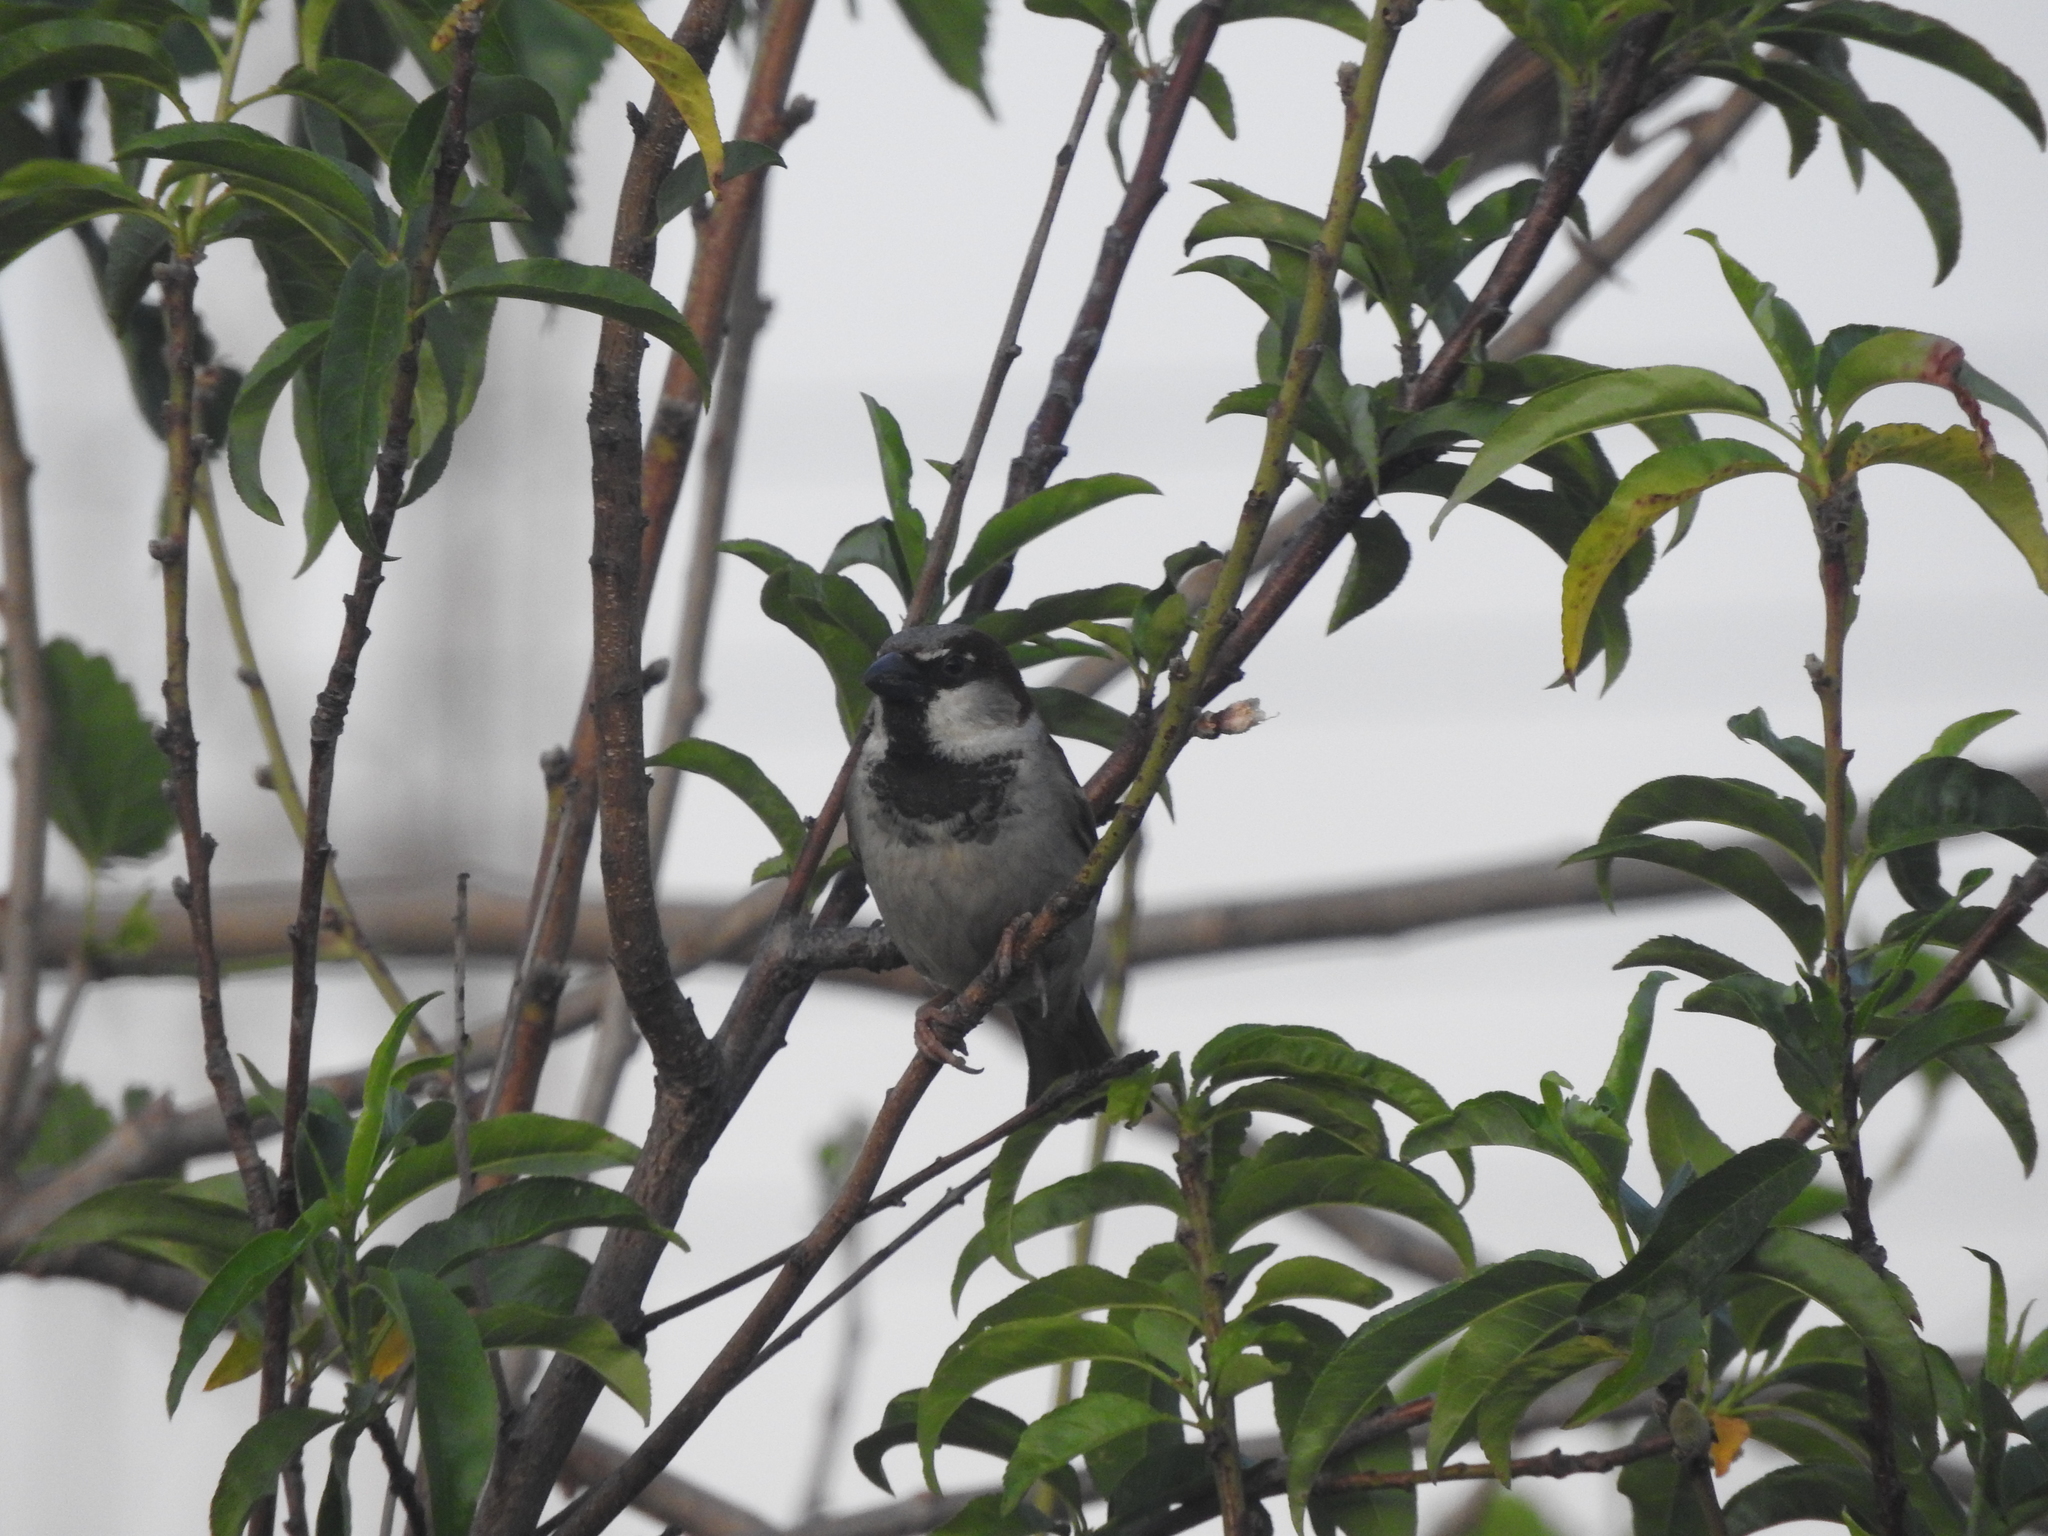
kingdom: Animalia
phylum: Chordata
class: Aves
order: Passeriformes
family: Passeridae
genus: Passer
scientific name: Passer domesticus
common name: House sparrow
